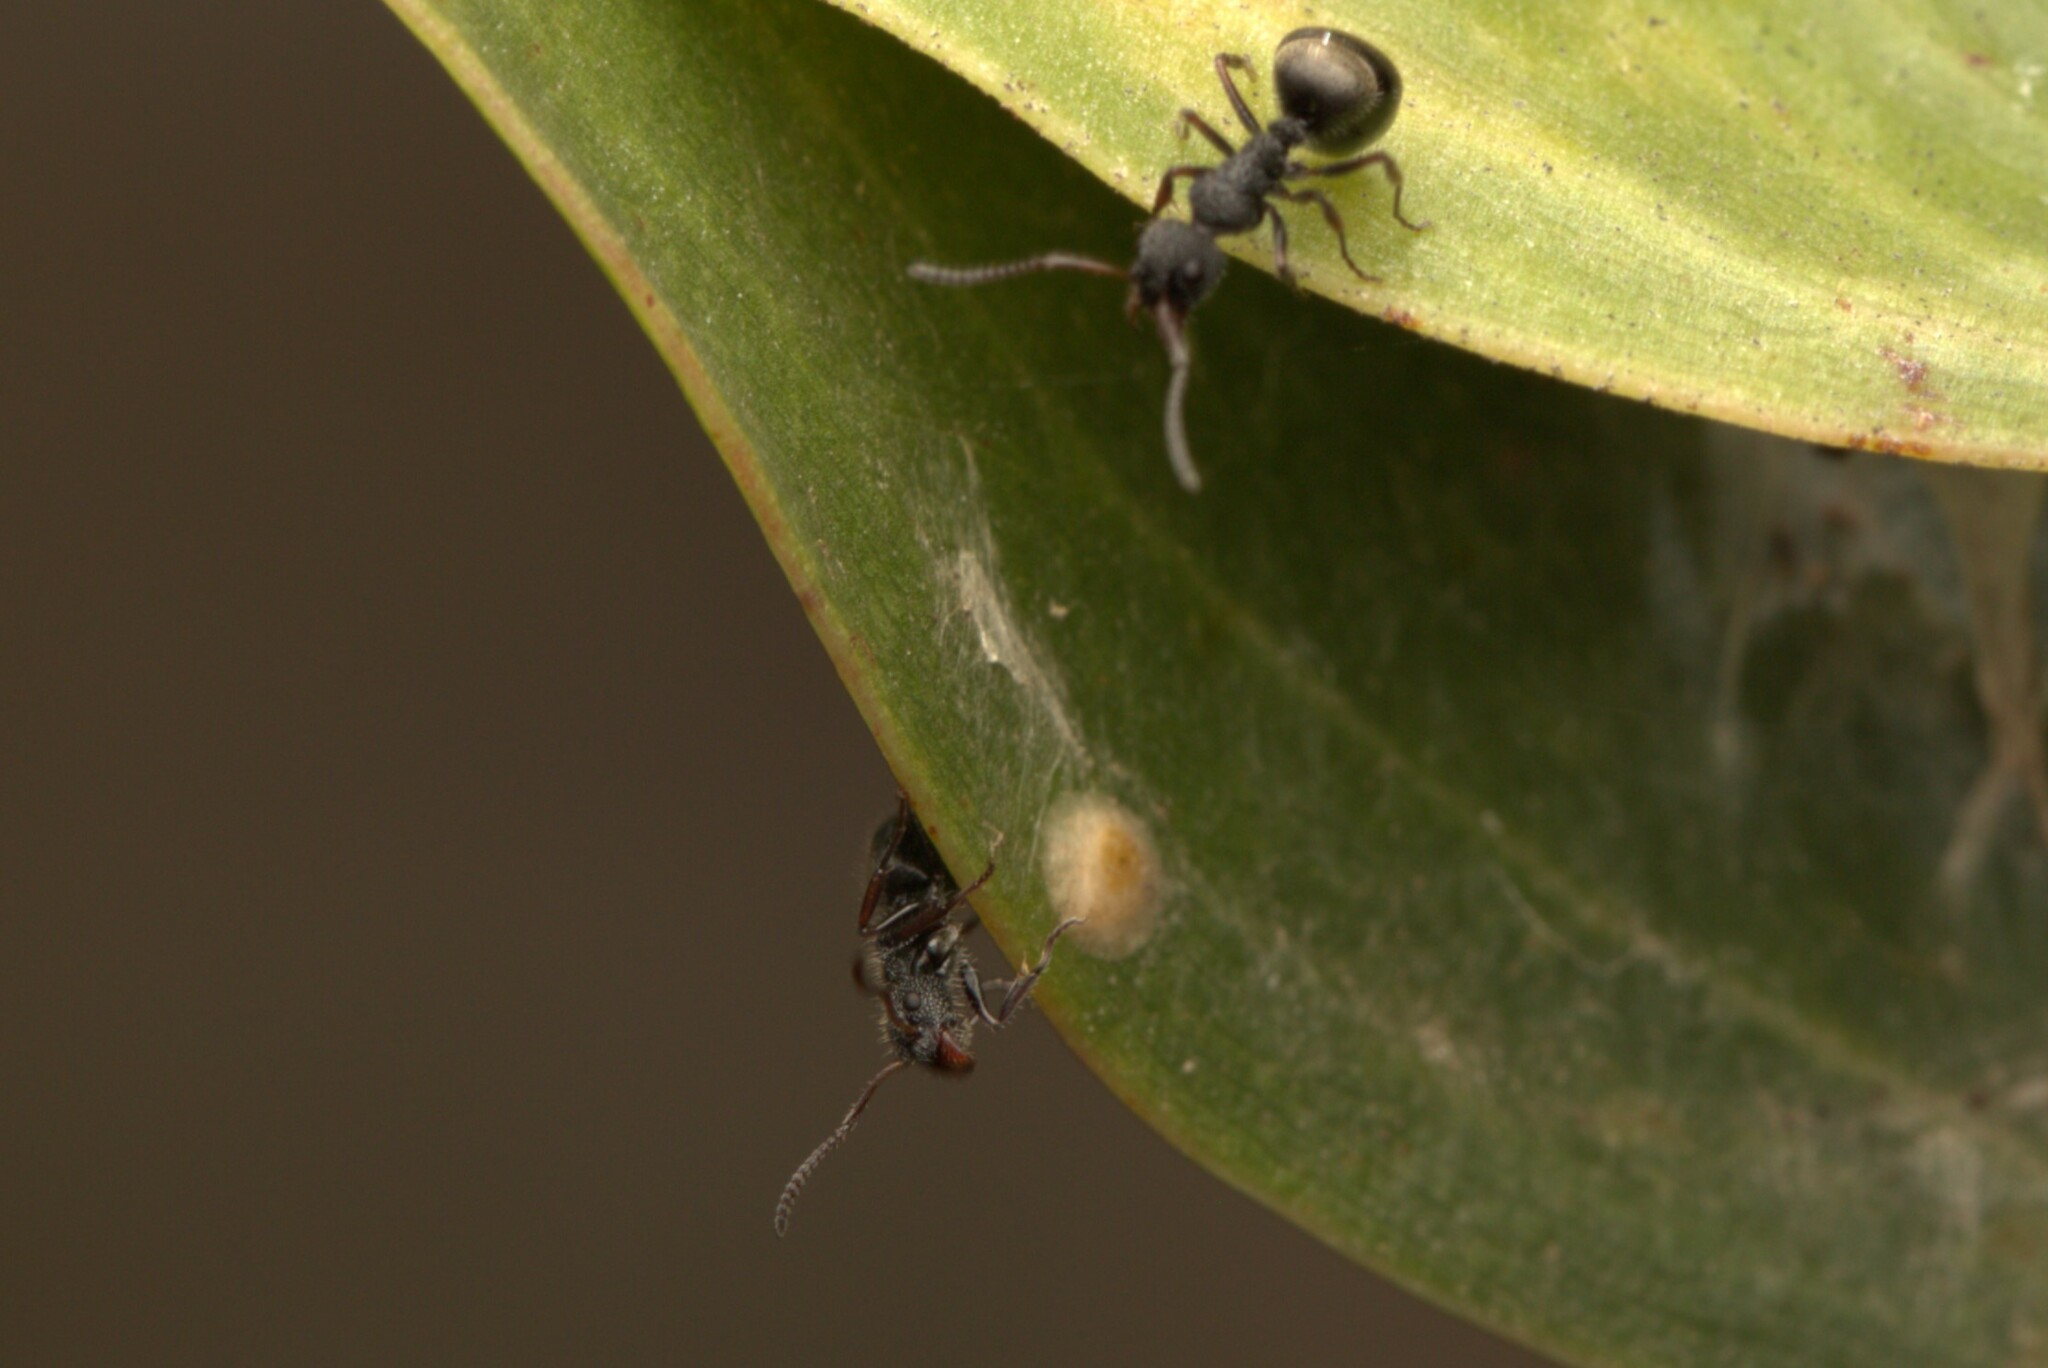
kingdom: Animalia
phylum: Arthropoda
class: Insecta
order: Hymenoptera
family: Formicidae
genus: Dolichoderus
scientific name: Dolichoderus scrobiculatus
